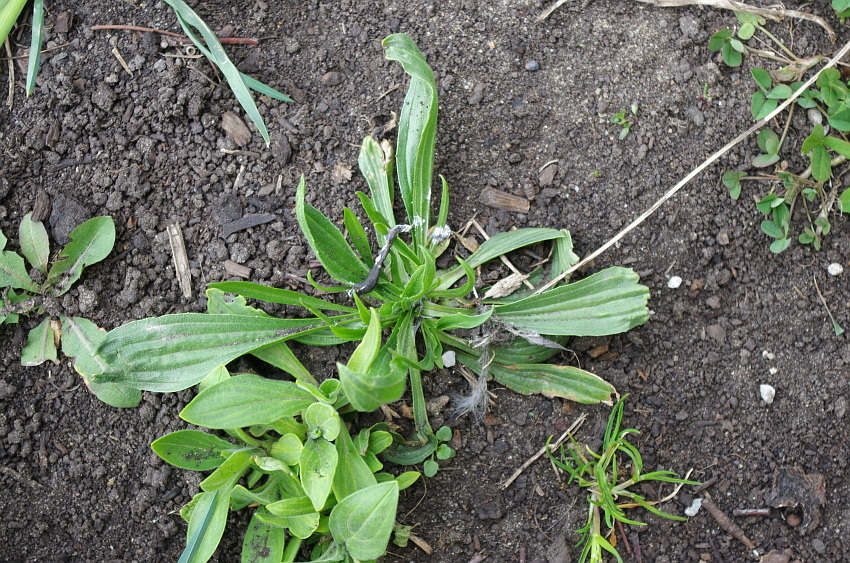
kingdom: Plantae
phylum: Tracheophyta
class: Magnoliopsida
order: Lamiales
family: Plantaginaceae
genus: Plantago
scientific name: Plantago lanceolata
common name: Ribwort plantain
